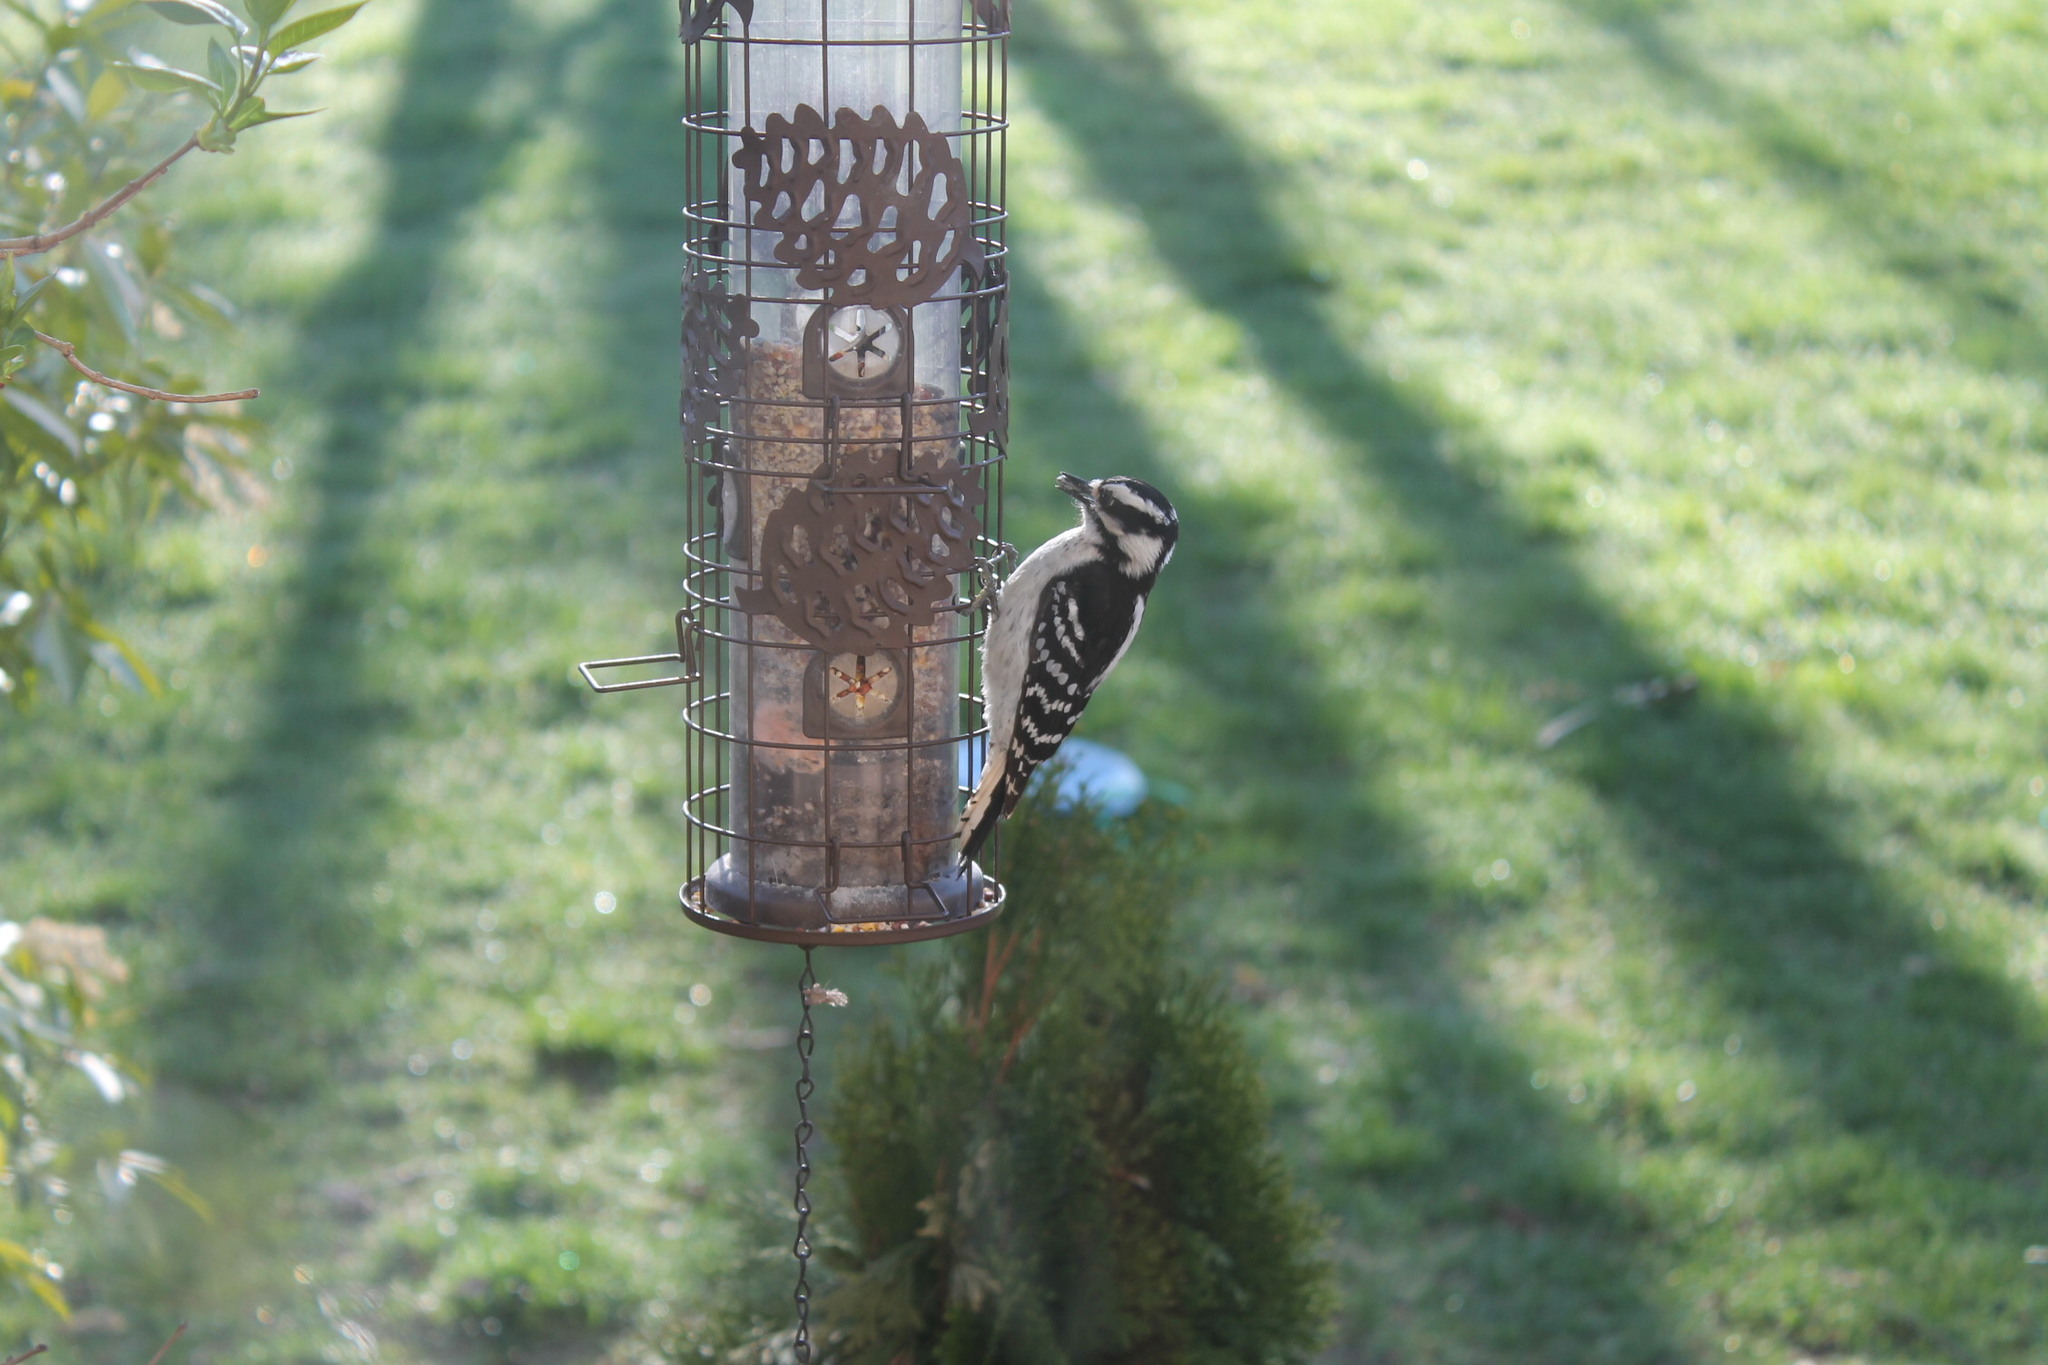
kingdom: Animalia
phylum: Chordata
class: Aves
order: Piciformes
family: Picidae
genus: Dryobates
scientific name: Dryobates pubescens
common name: Downy woodpecker
